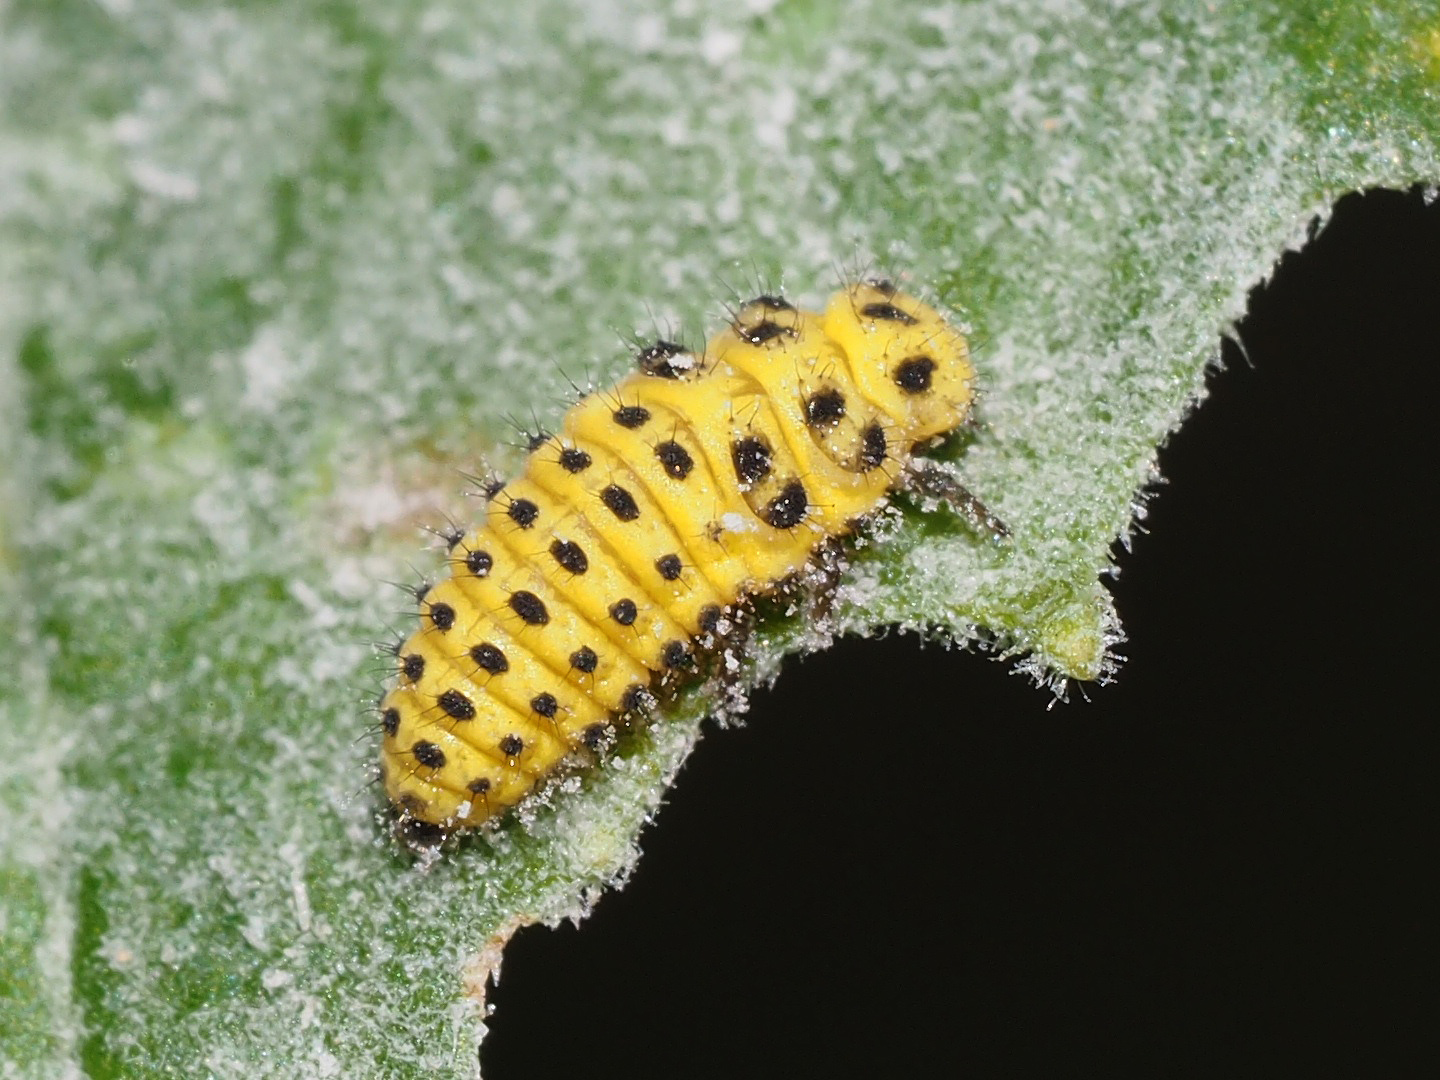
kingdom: Animalia
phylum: Arthropoda
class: Insecta
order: Coleoptera
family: Coccinellidae
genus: Psyllobora
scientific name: Psyllobora vigintiduopunctata
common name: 22-spot ladybird
